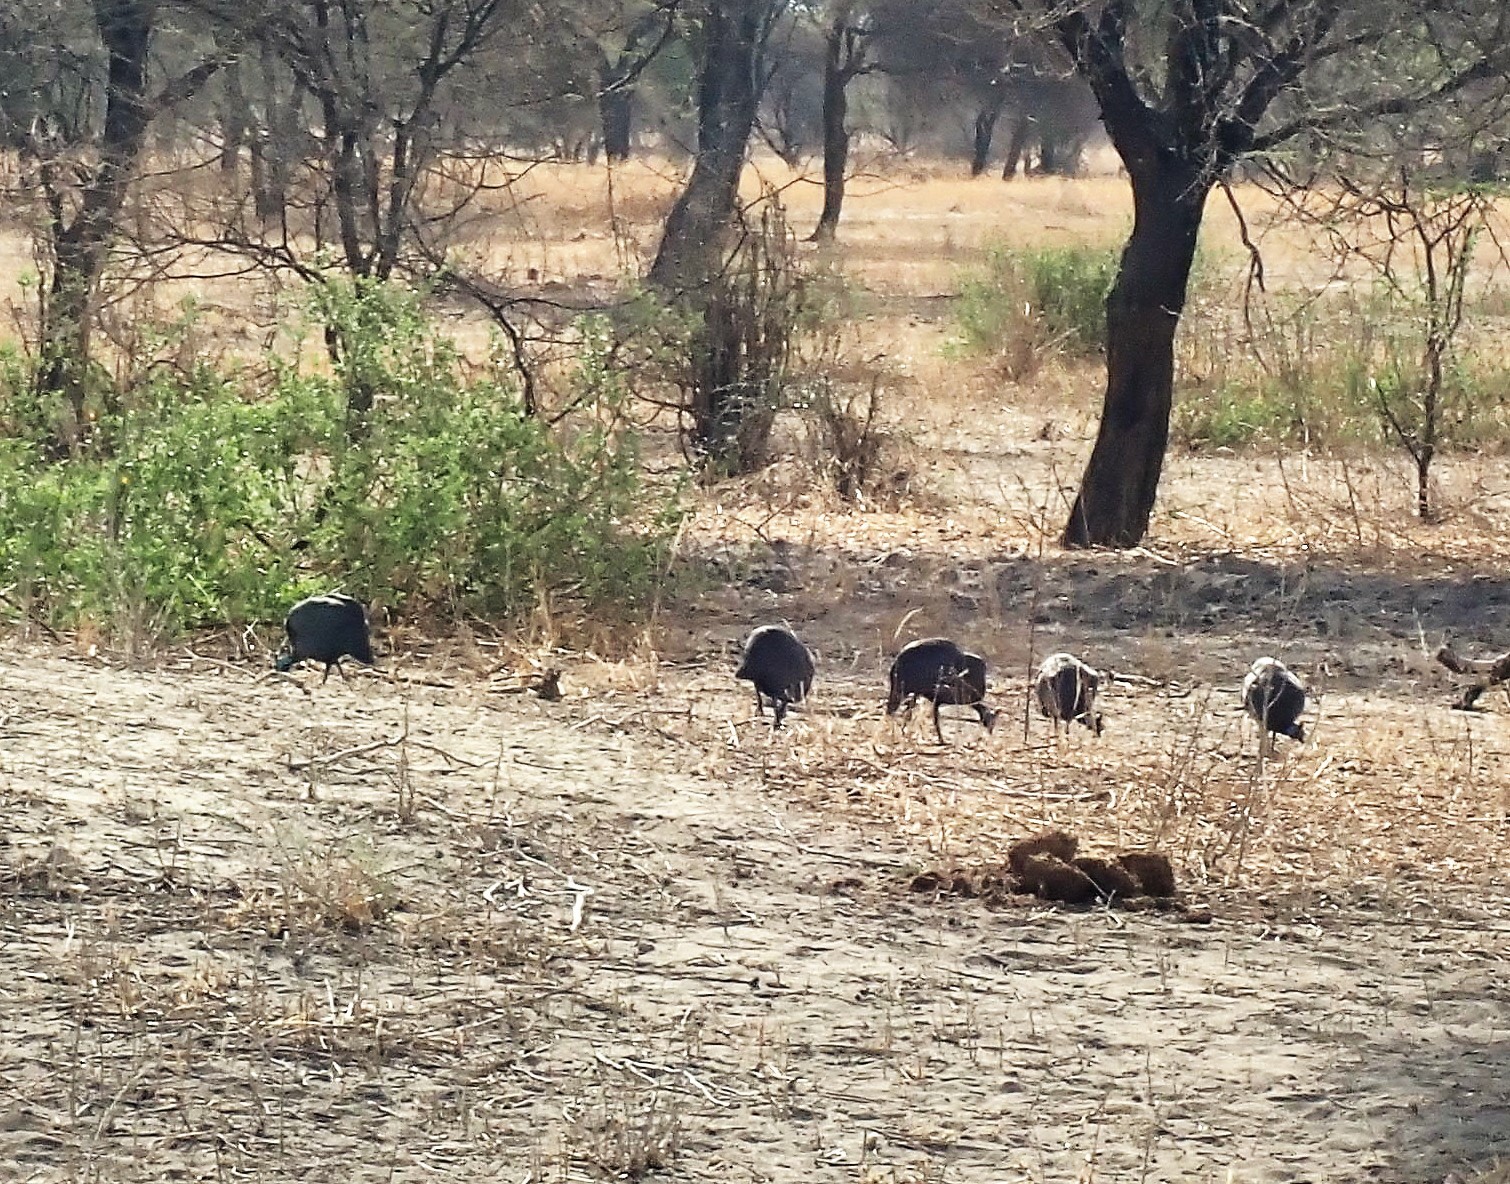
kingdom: Animalia
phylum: Chordata
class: Aves
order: Galliformes
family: Numididae
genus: Numida
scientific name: Numida meleagris
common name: Helmeted guineafowl
